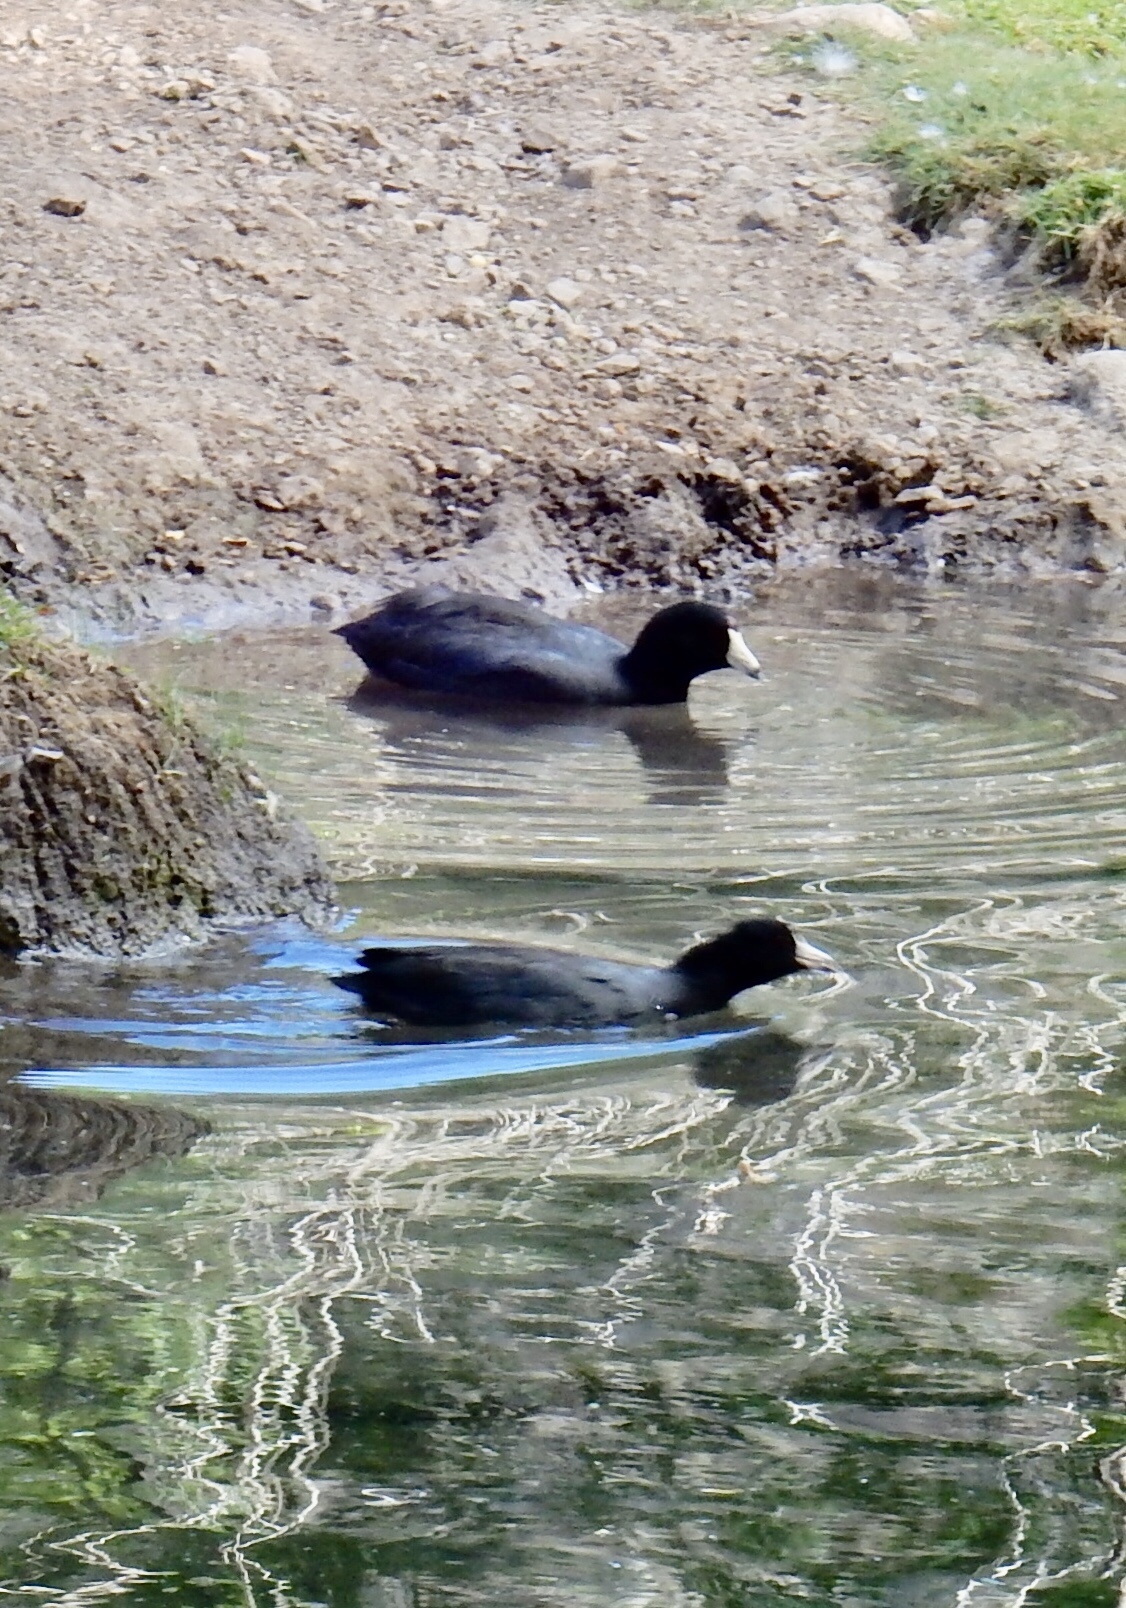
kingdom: Animalia
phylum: Chordata
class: Aves
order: Gruiformes
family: Rallidae
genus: Fulica
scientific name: Fulica americana
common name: American coot
